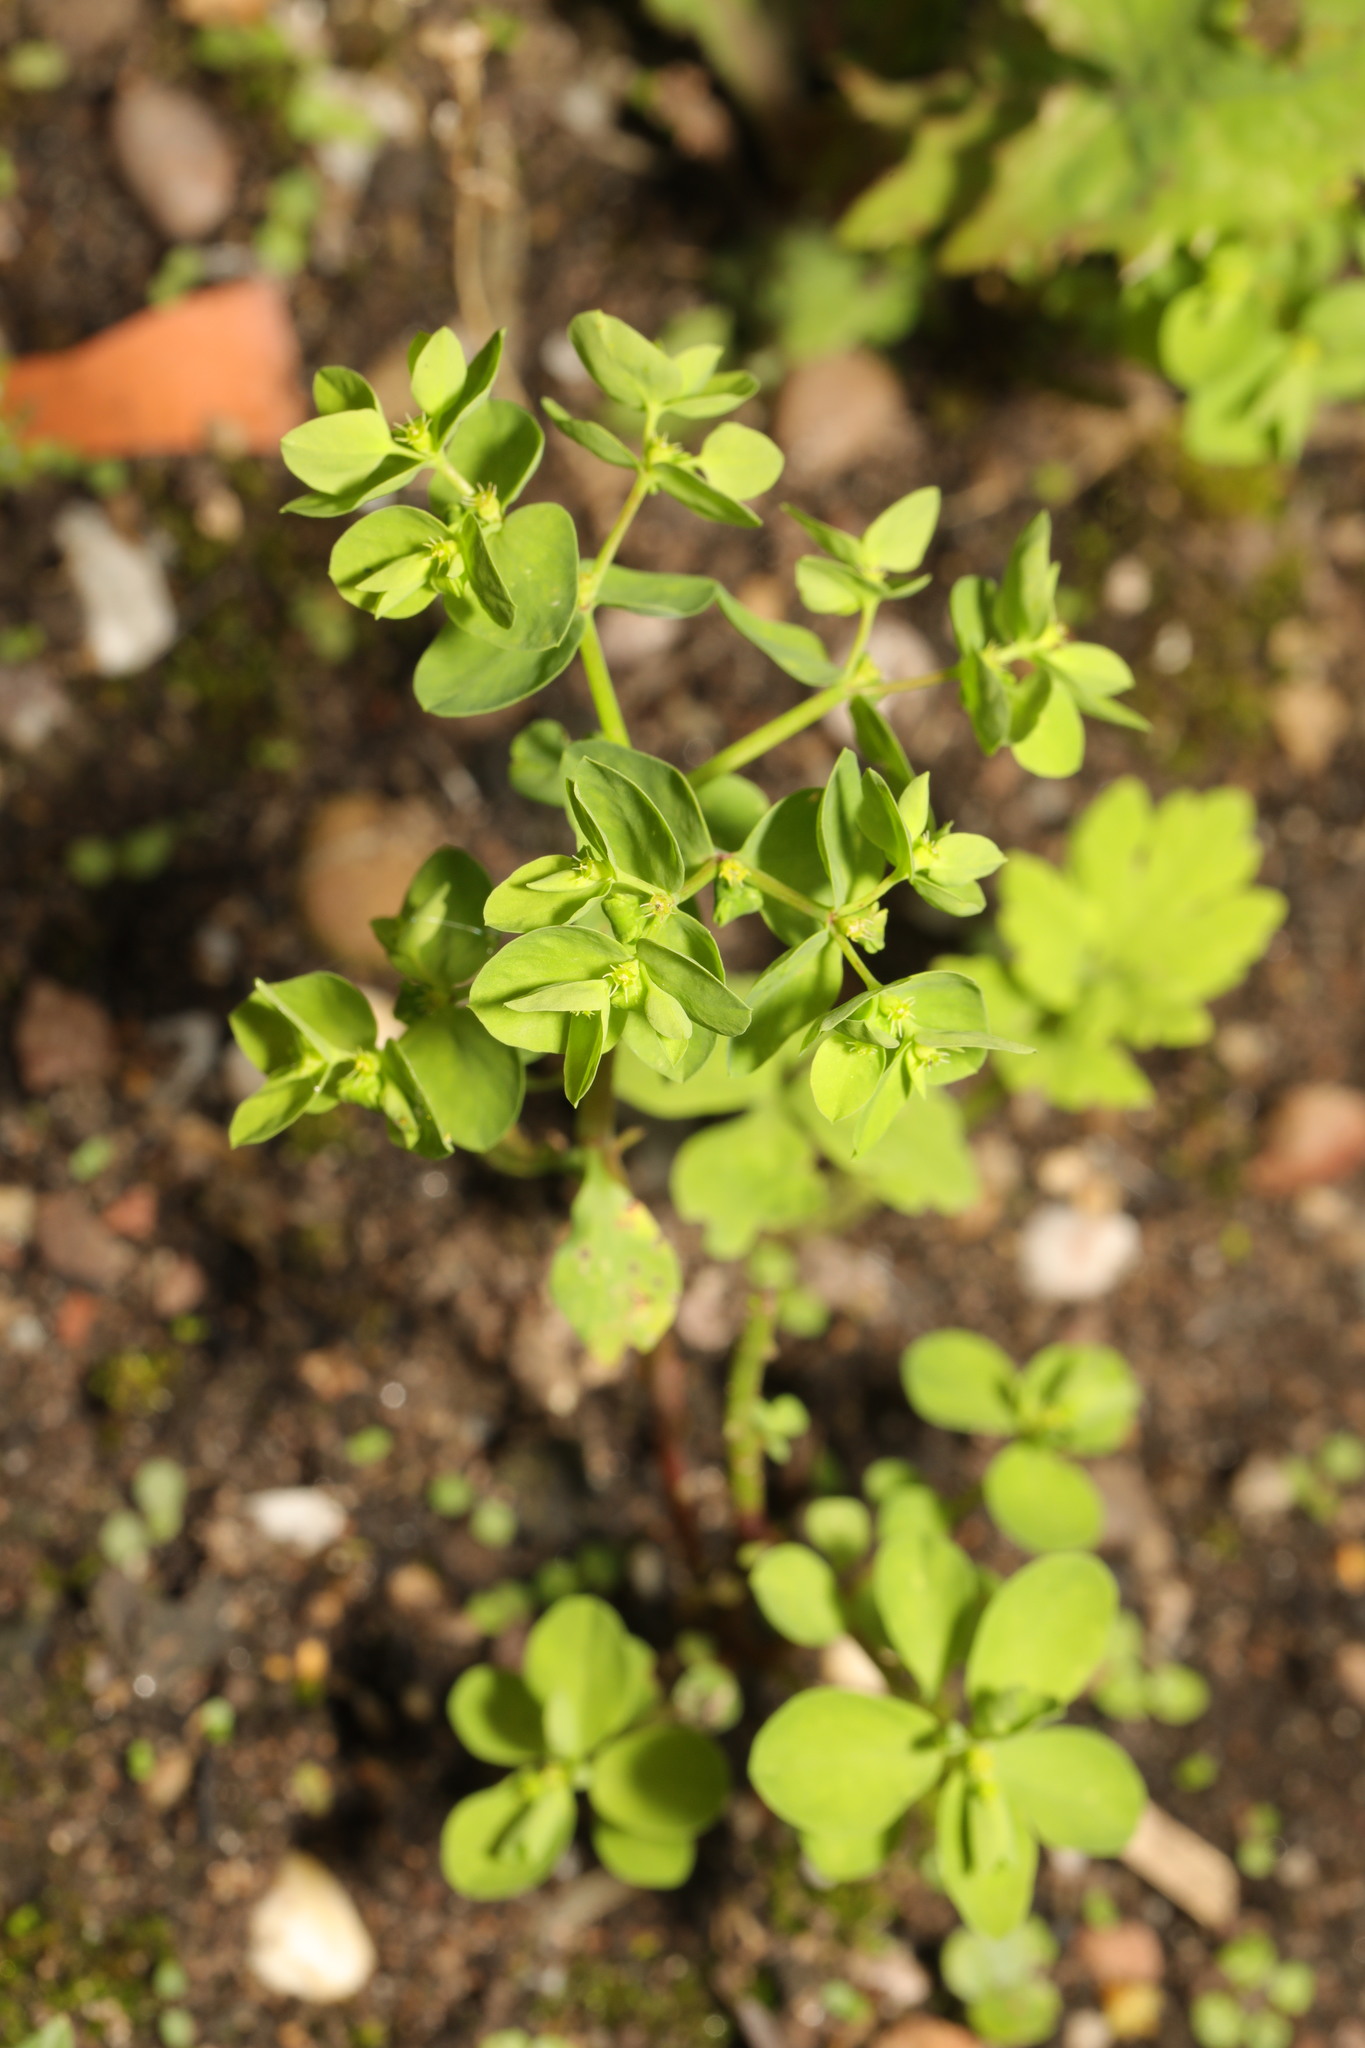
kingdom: Plantae
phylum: Tracheophyta
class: Magnoliopsida
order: Malpighiales
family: Euphorbiaceae
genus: Euphorbia
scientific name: Euphorbia peplus
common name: Petty spurge
